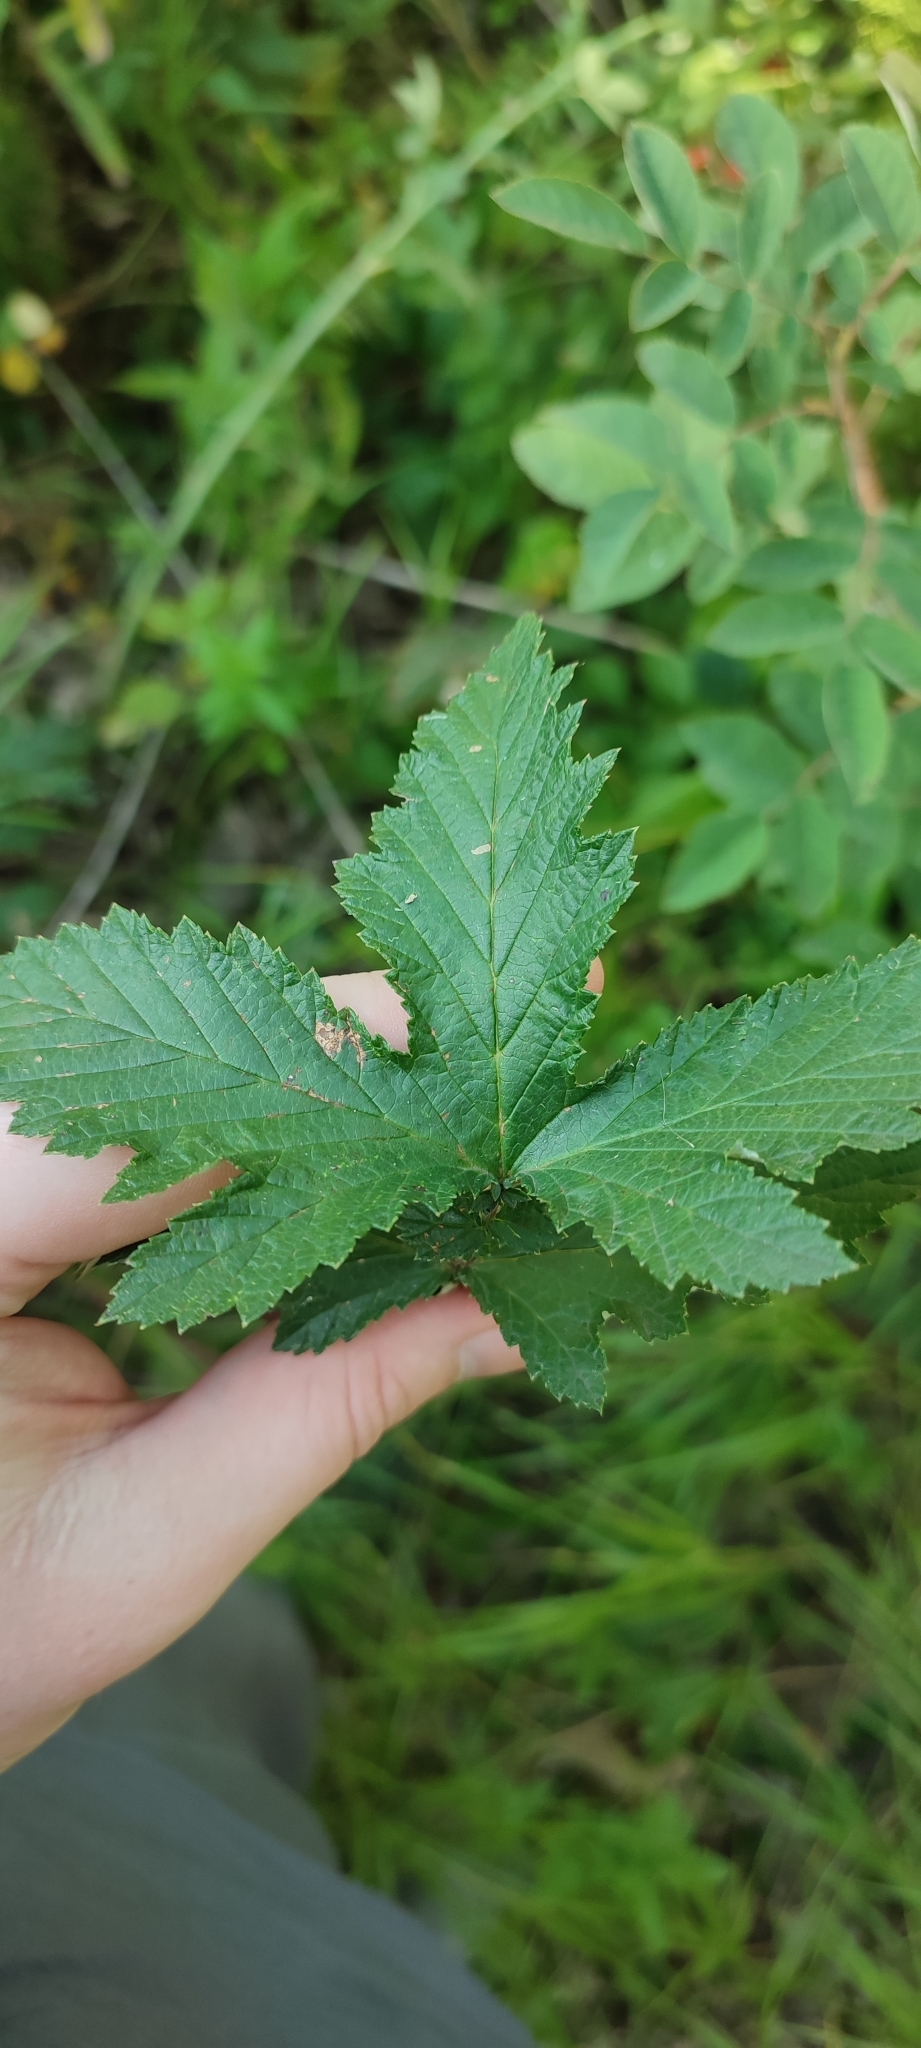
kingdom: Plantae
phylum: Tracheophyta
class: Magnoliopsida
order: Rosales
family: Rosaceae
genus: Filipendula
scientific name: Filipendula ulmaria
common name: Meadowsweet
